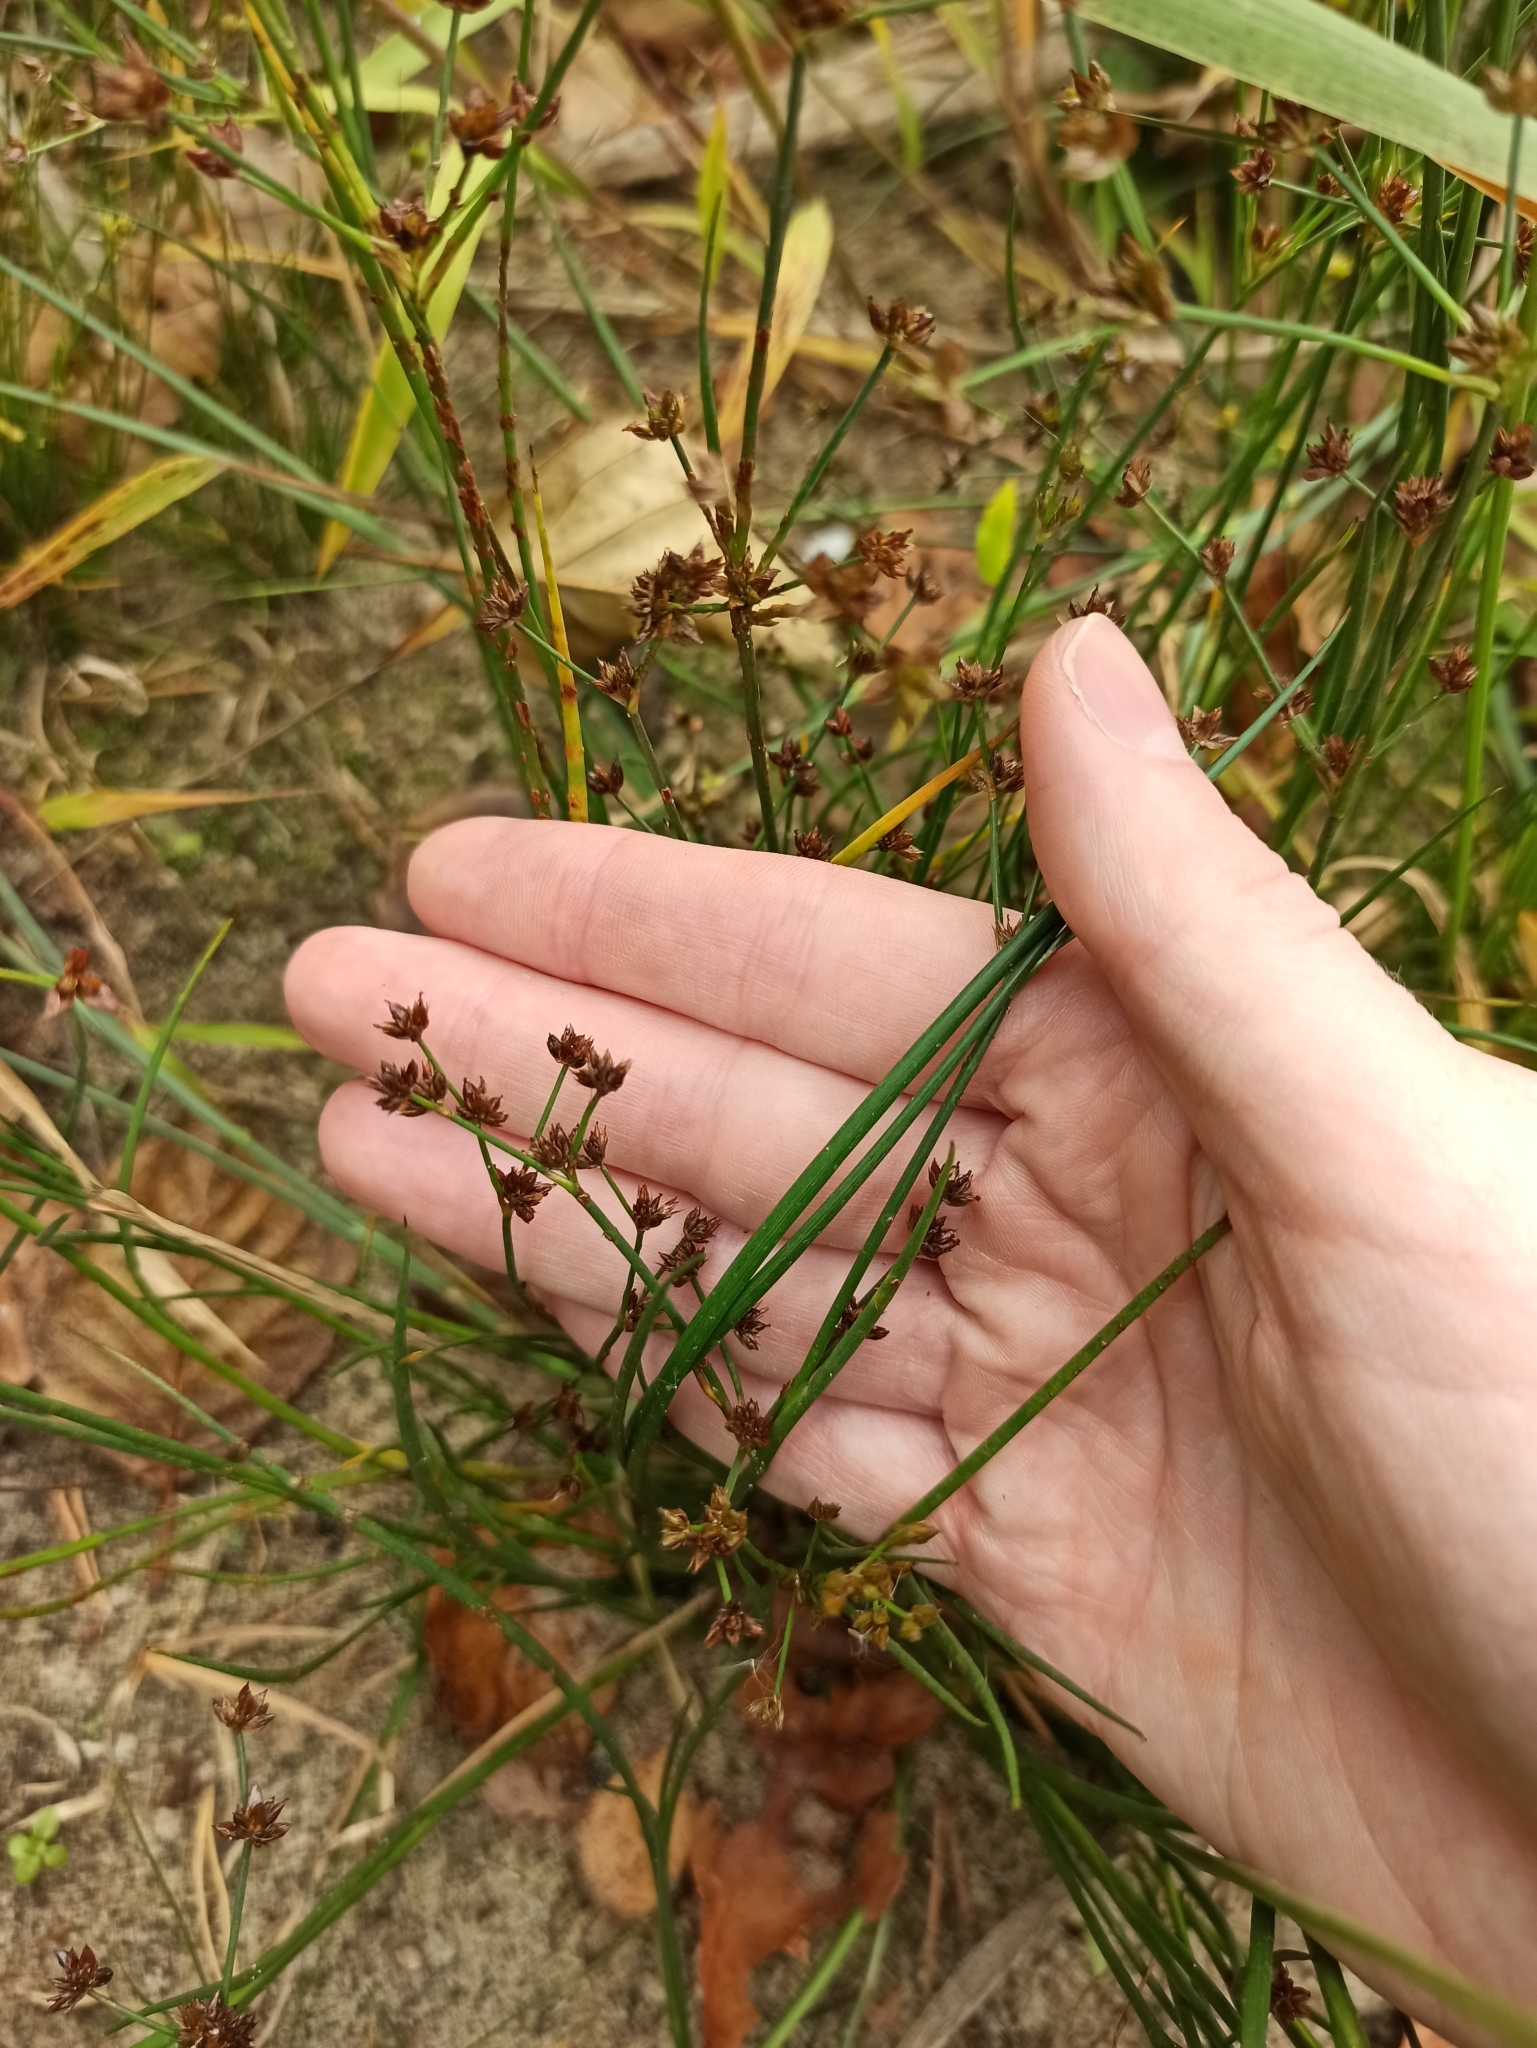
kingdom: Plantae
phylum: Tracheophyta
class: Liliopsida
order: Poales
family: Juncaceae
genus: Juncus
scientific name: Juncus articulatus
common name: Jointed rush
